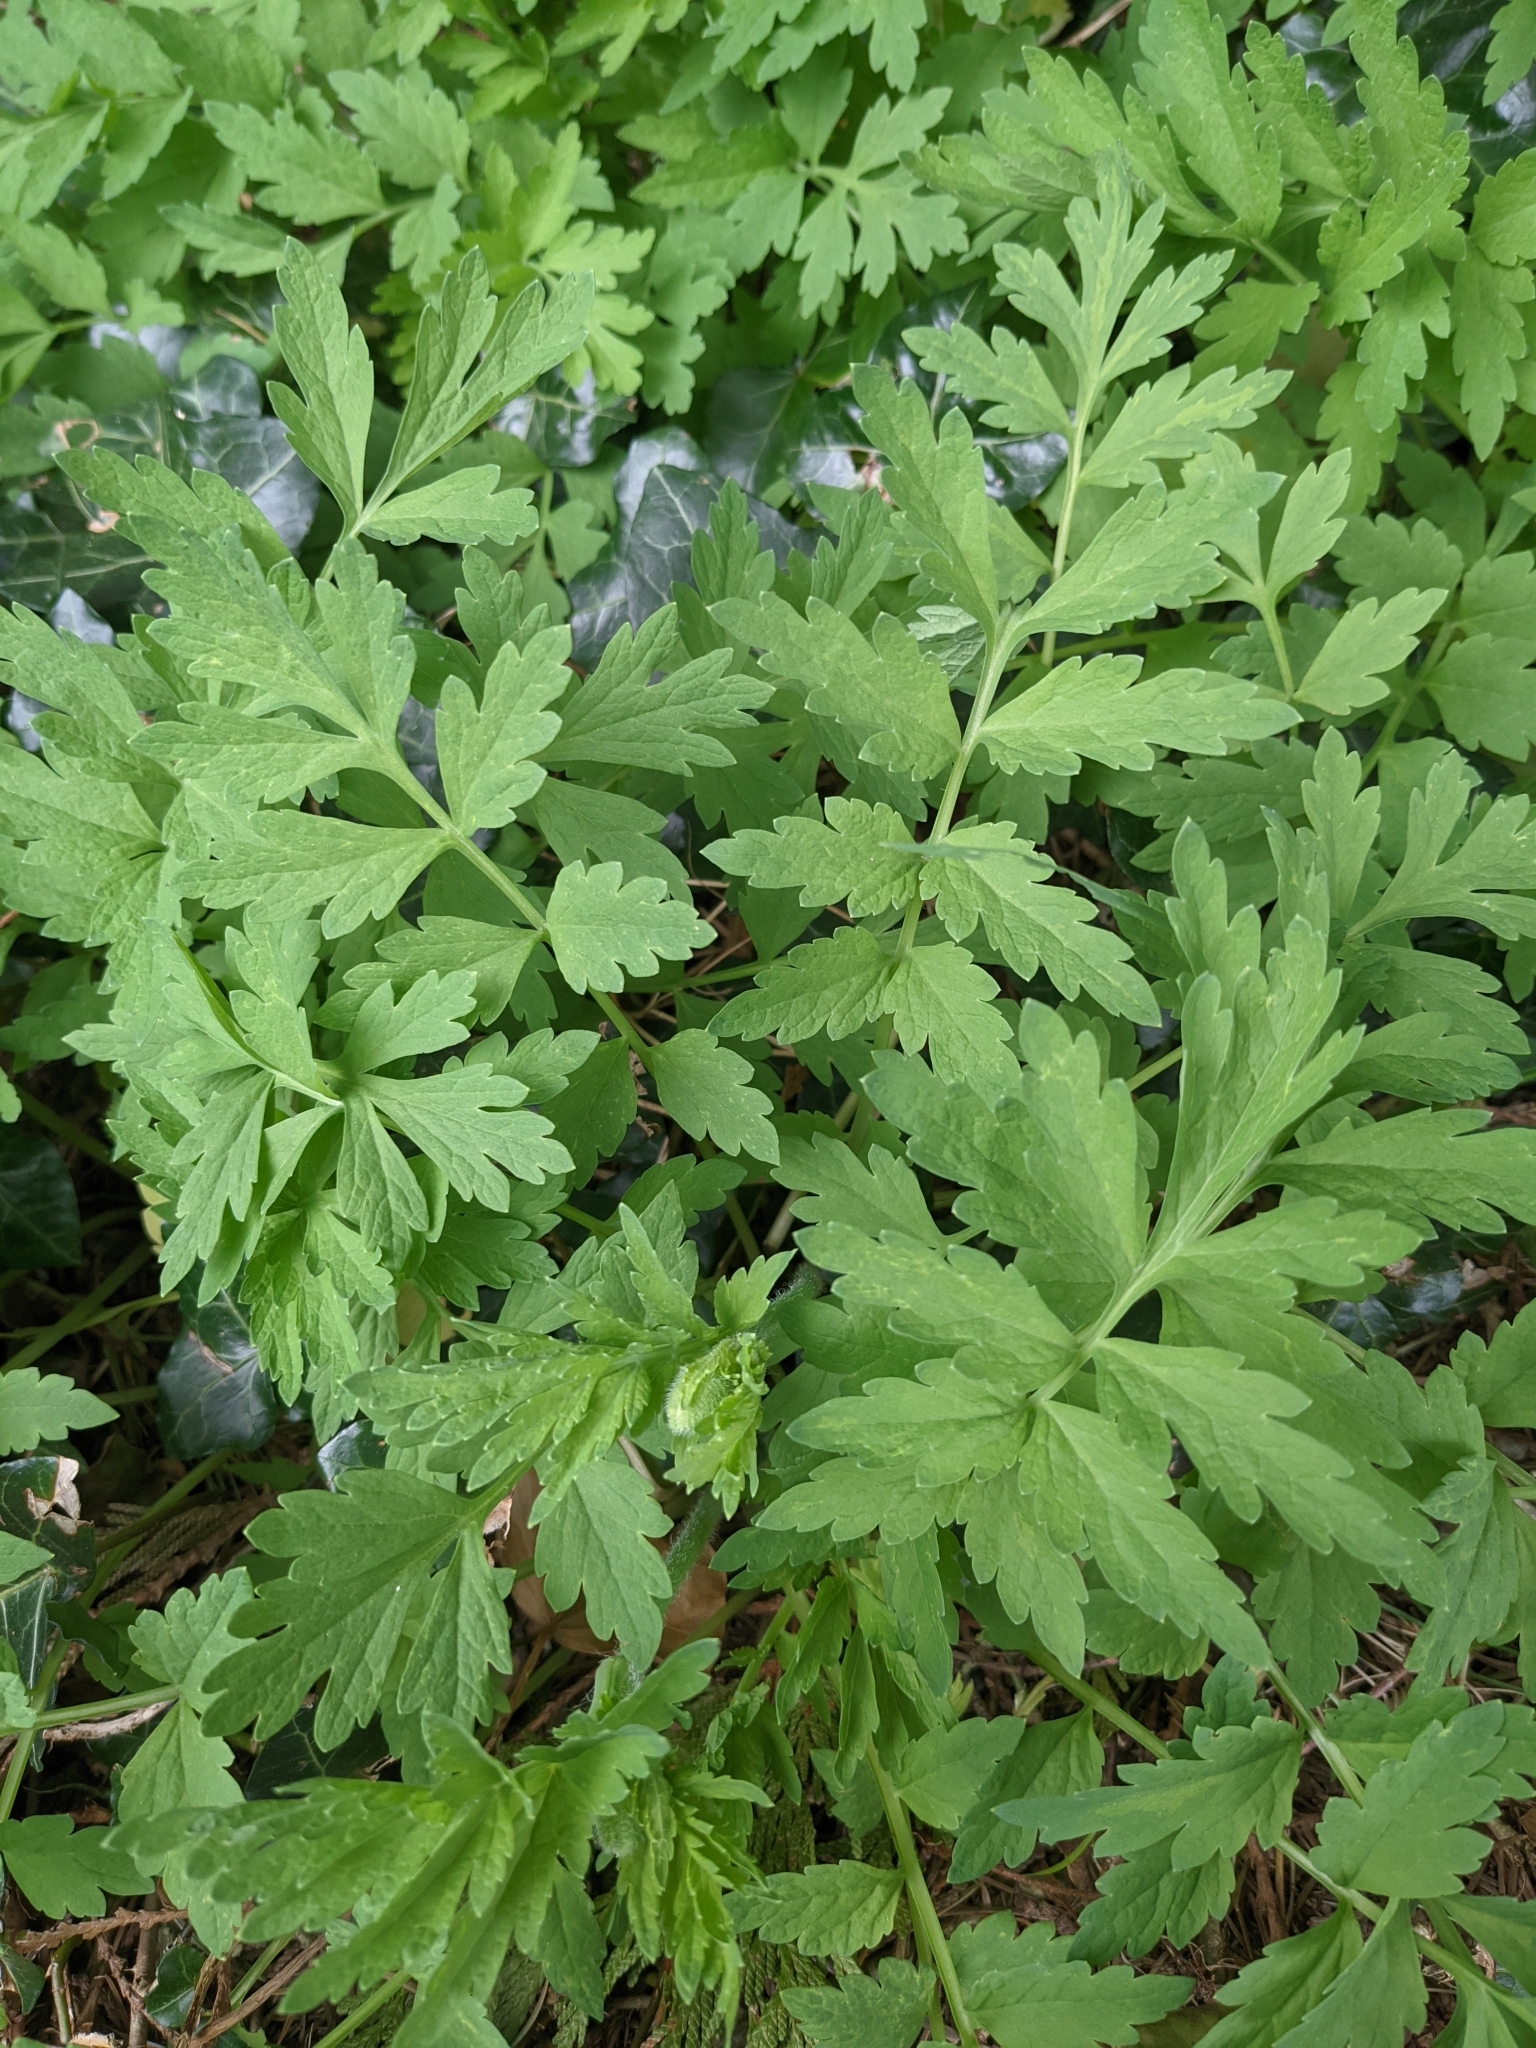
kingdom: Plantae
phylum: Tracheophyta
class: Magnoliopsida
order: Ranunculales
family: Papaveraceae
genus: Papaver
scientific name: Papaver cambricum
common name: Poppy
